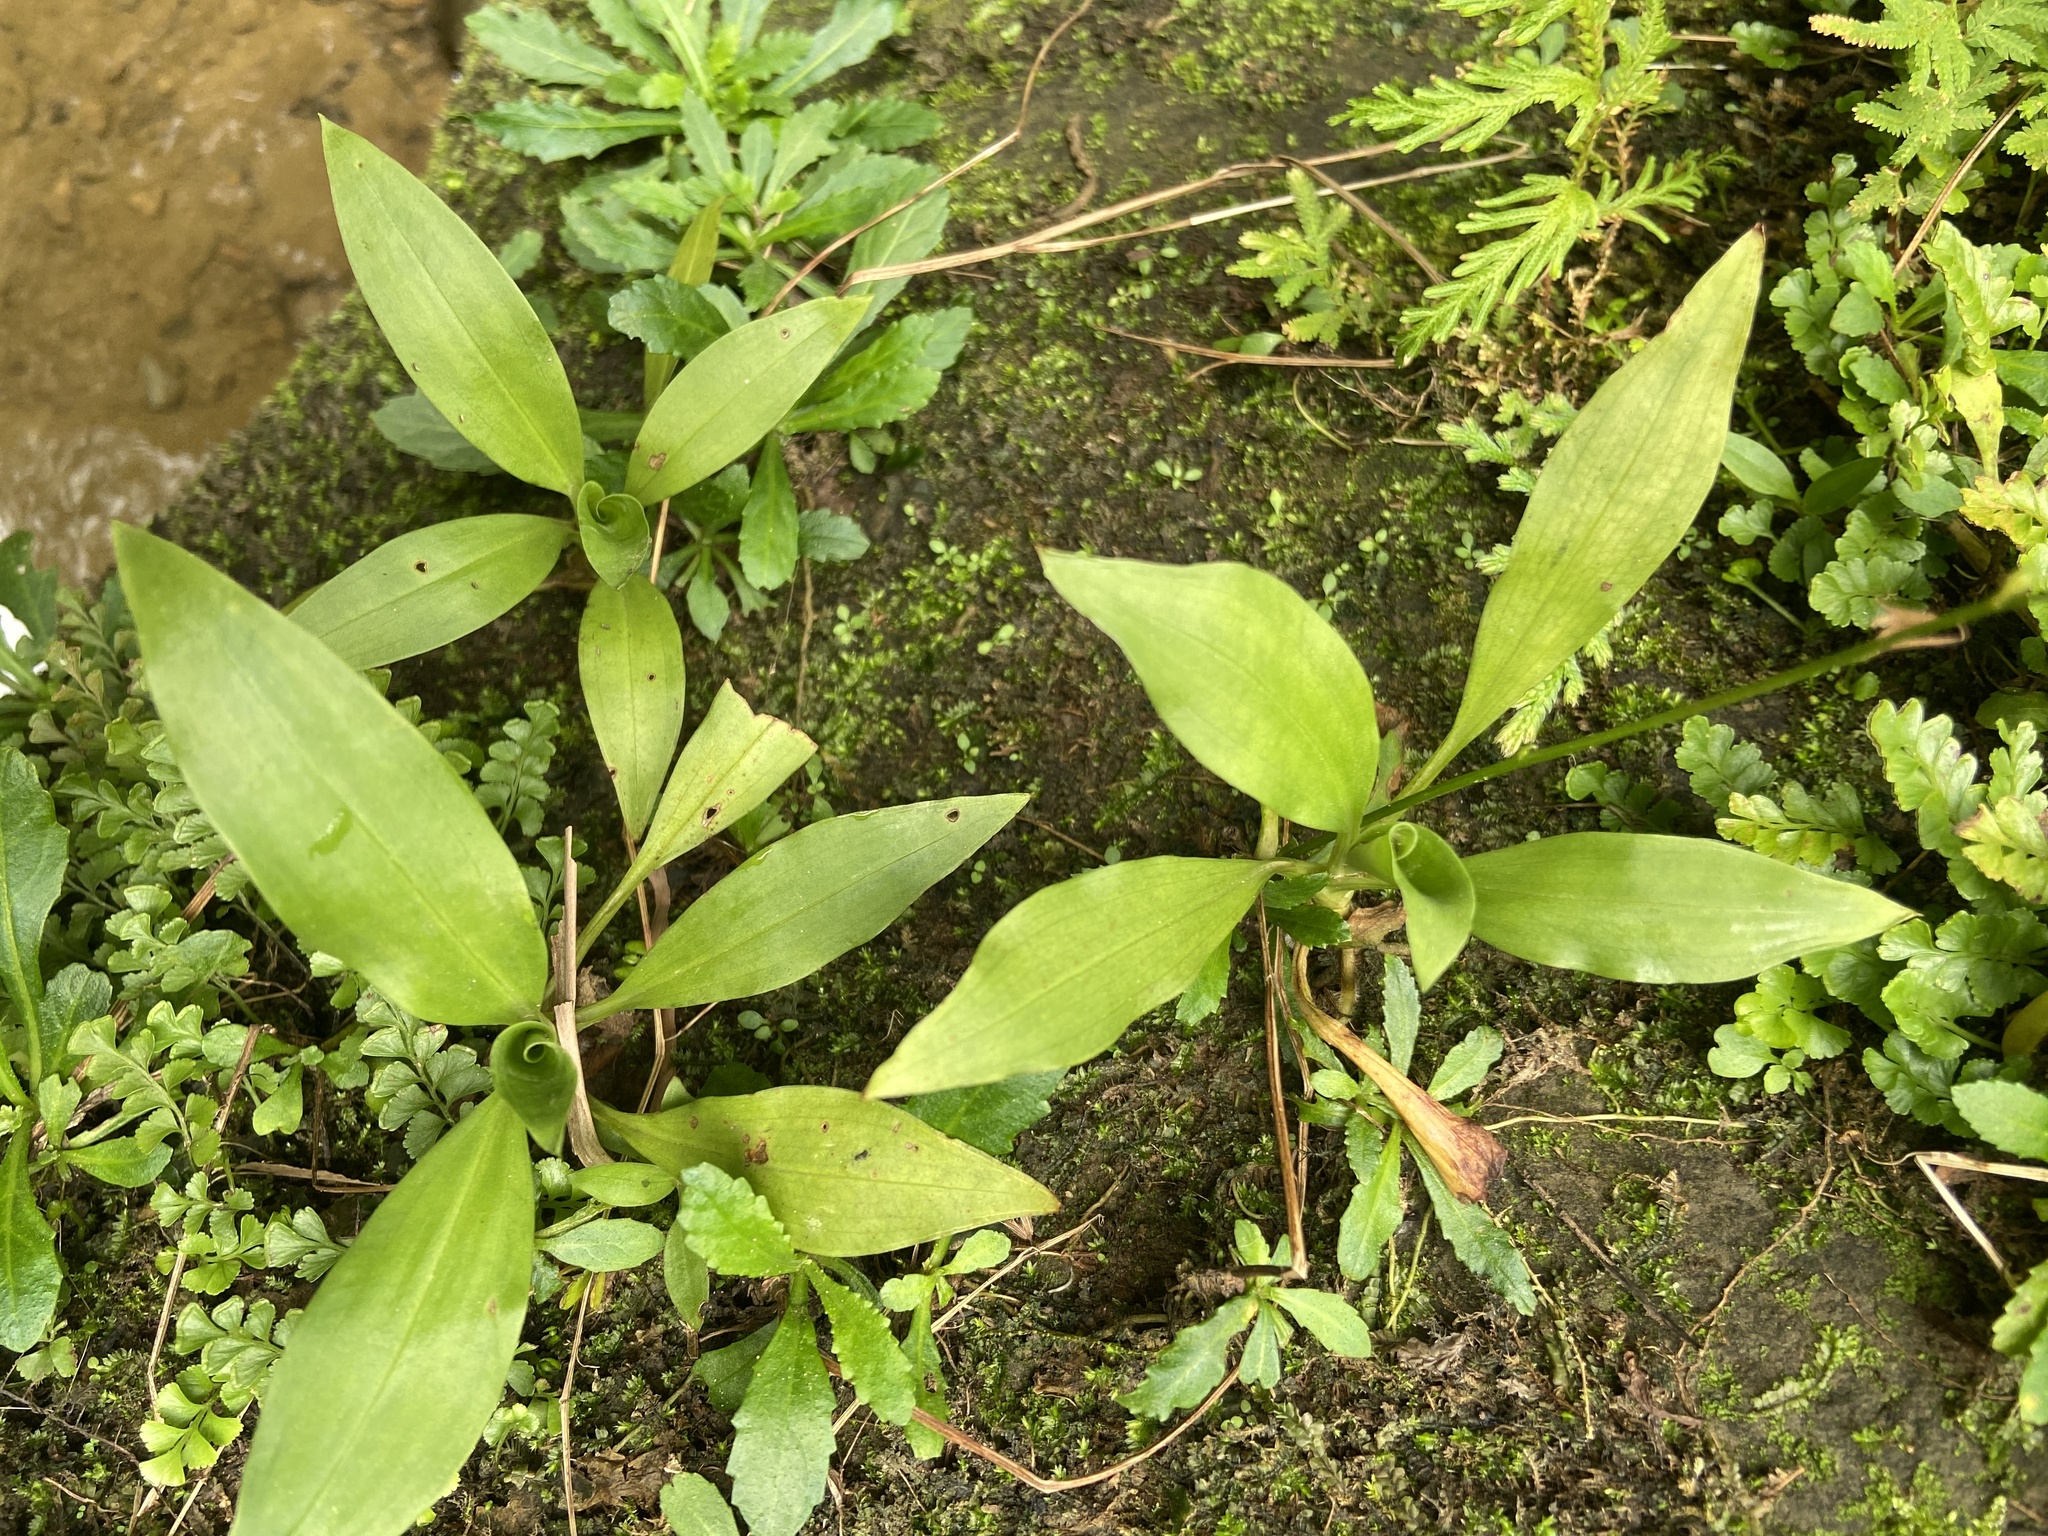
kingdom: Plantae
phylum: Tracheophyta
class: Liliopsida
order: Asparagales
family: Orchidaceae
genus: Goodyera
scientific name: Goodyera procera
